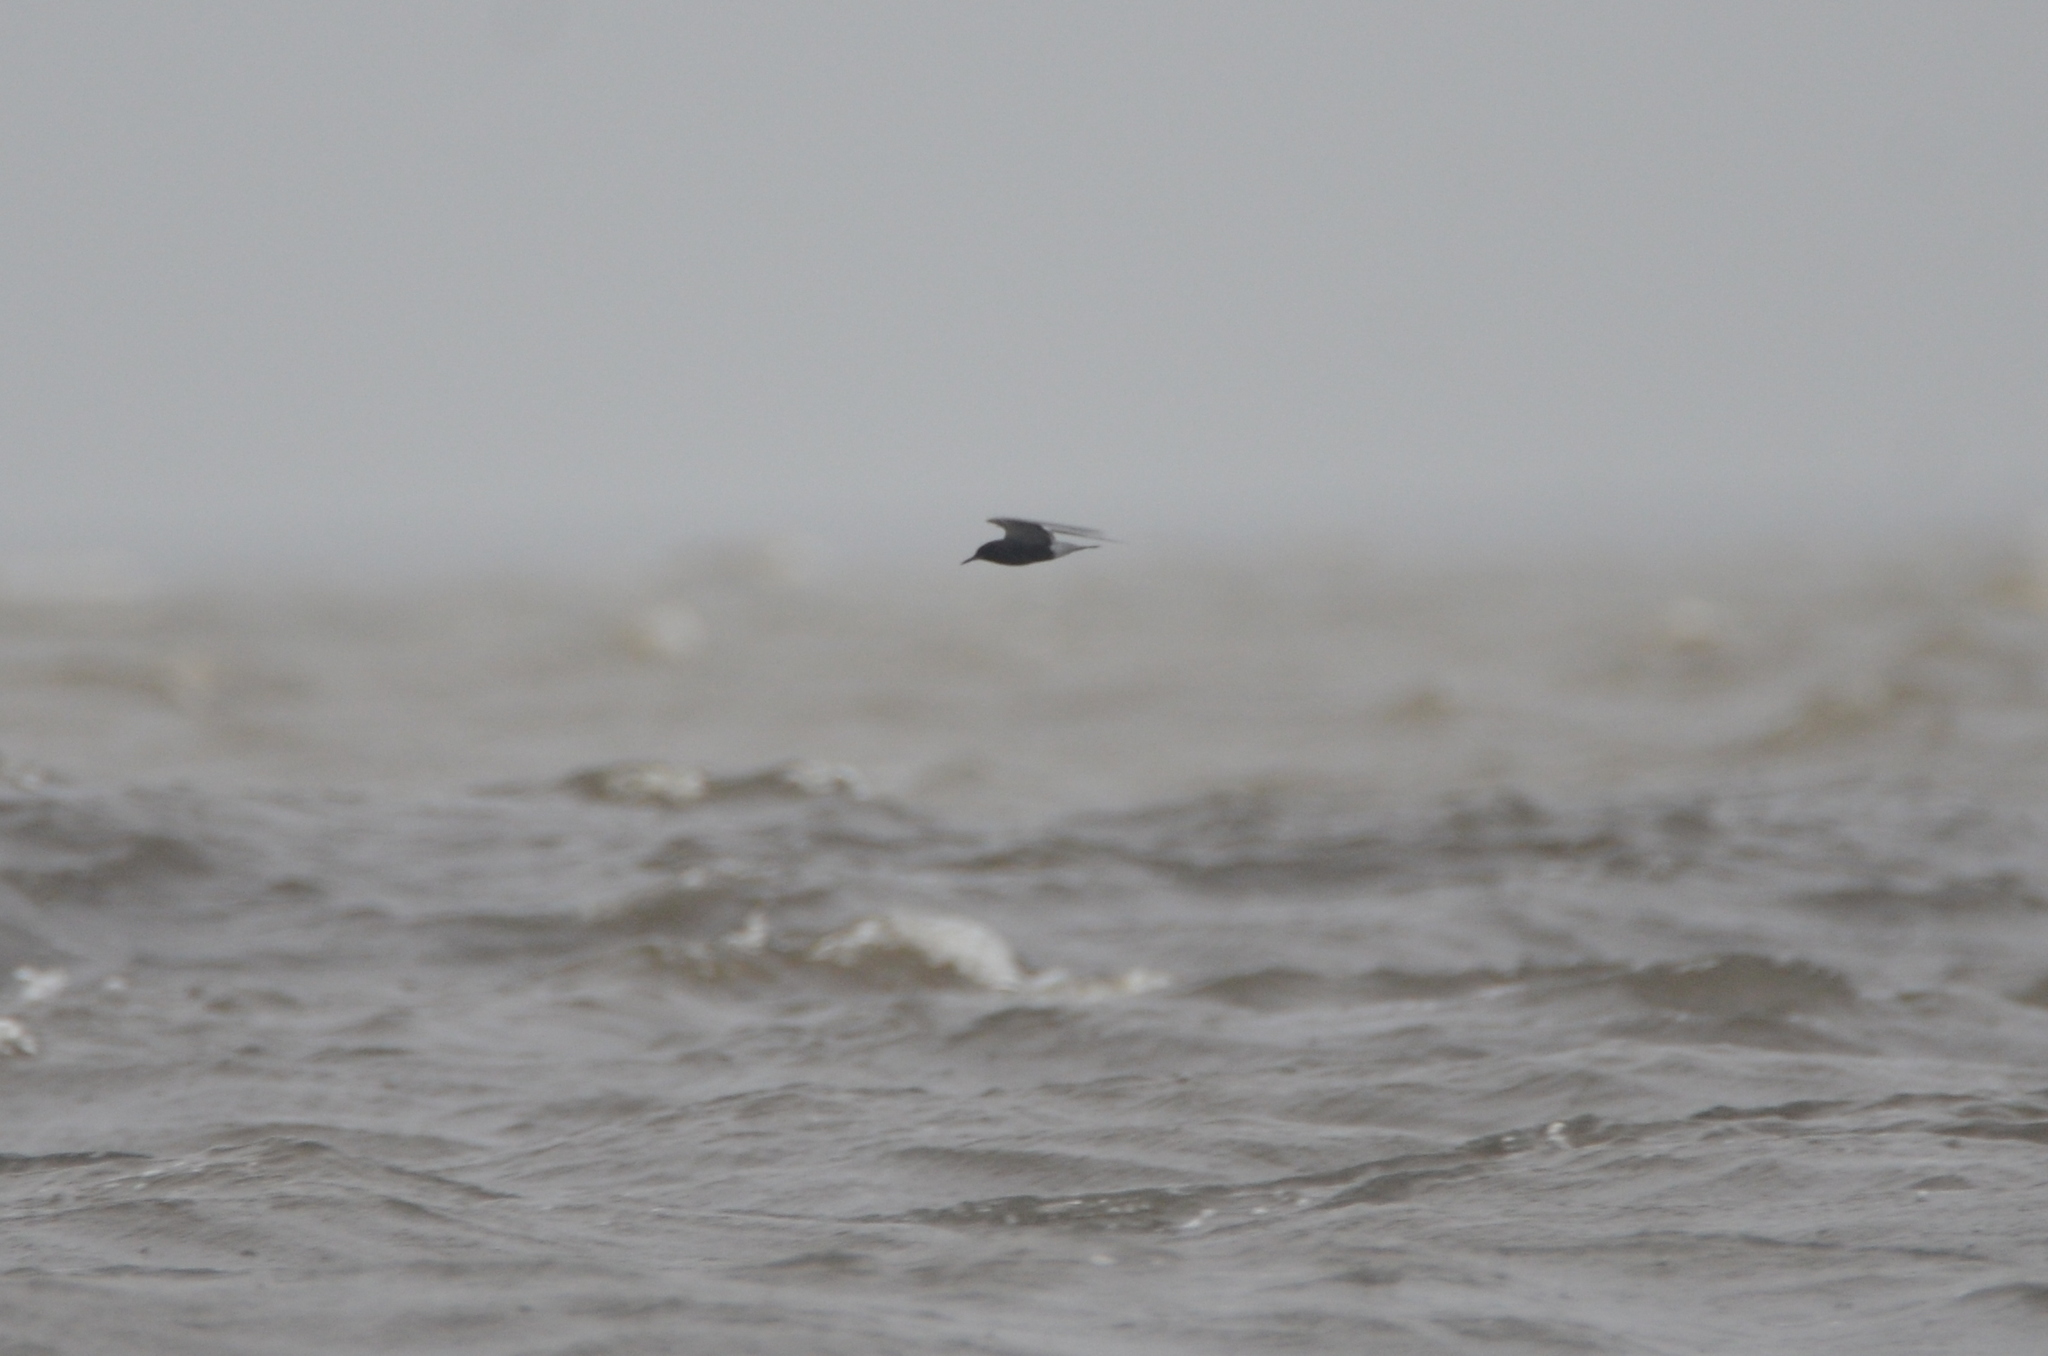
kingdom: Animalia
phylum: Chordata
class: Aves
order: Charadriiformes
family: Laridae
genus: Chlidonias
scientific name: Chlidonias niger
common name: Black tern
